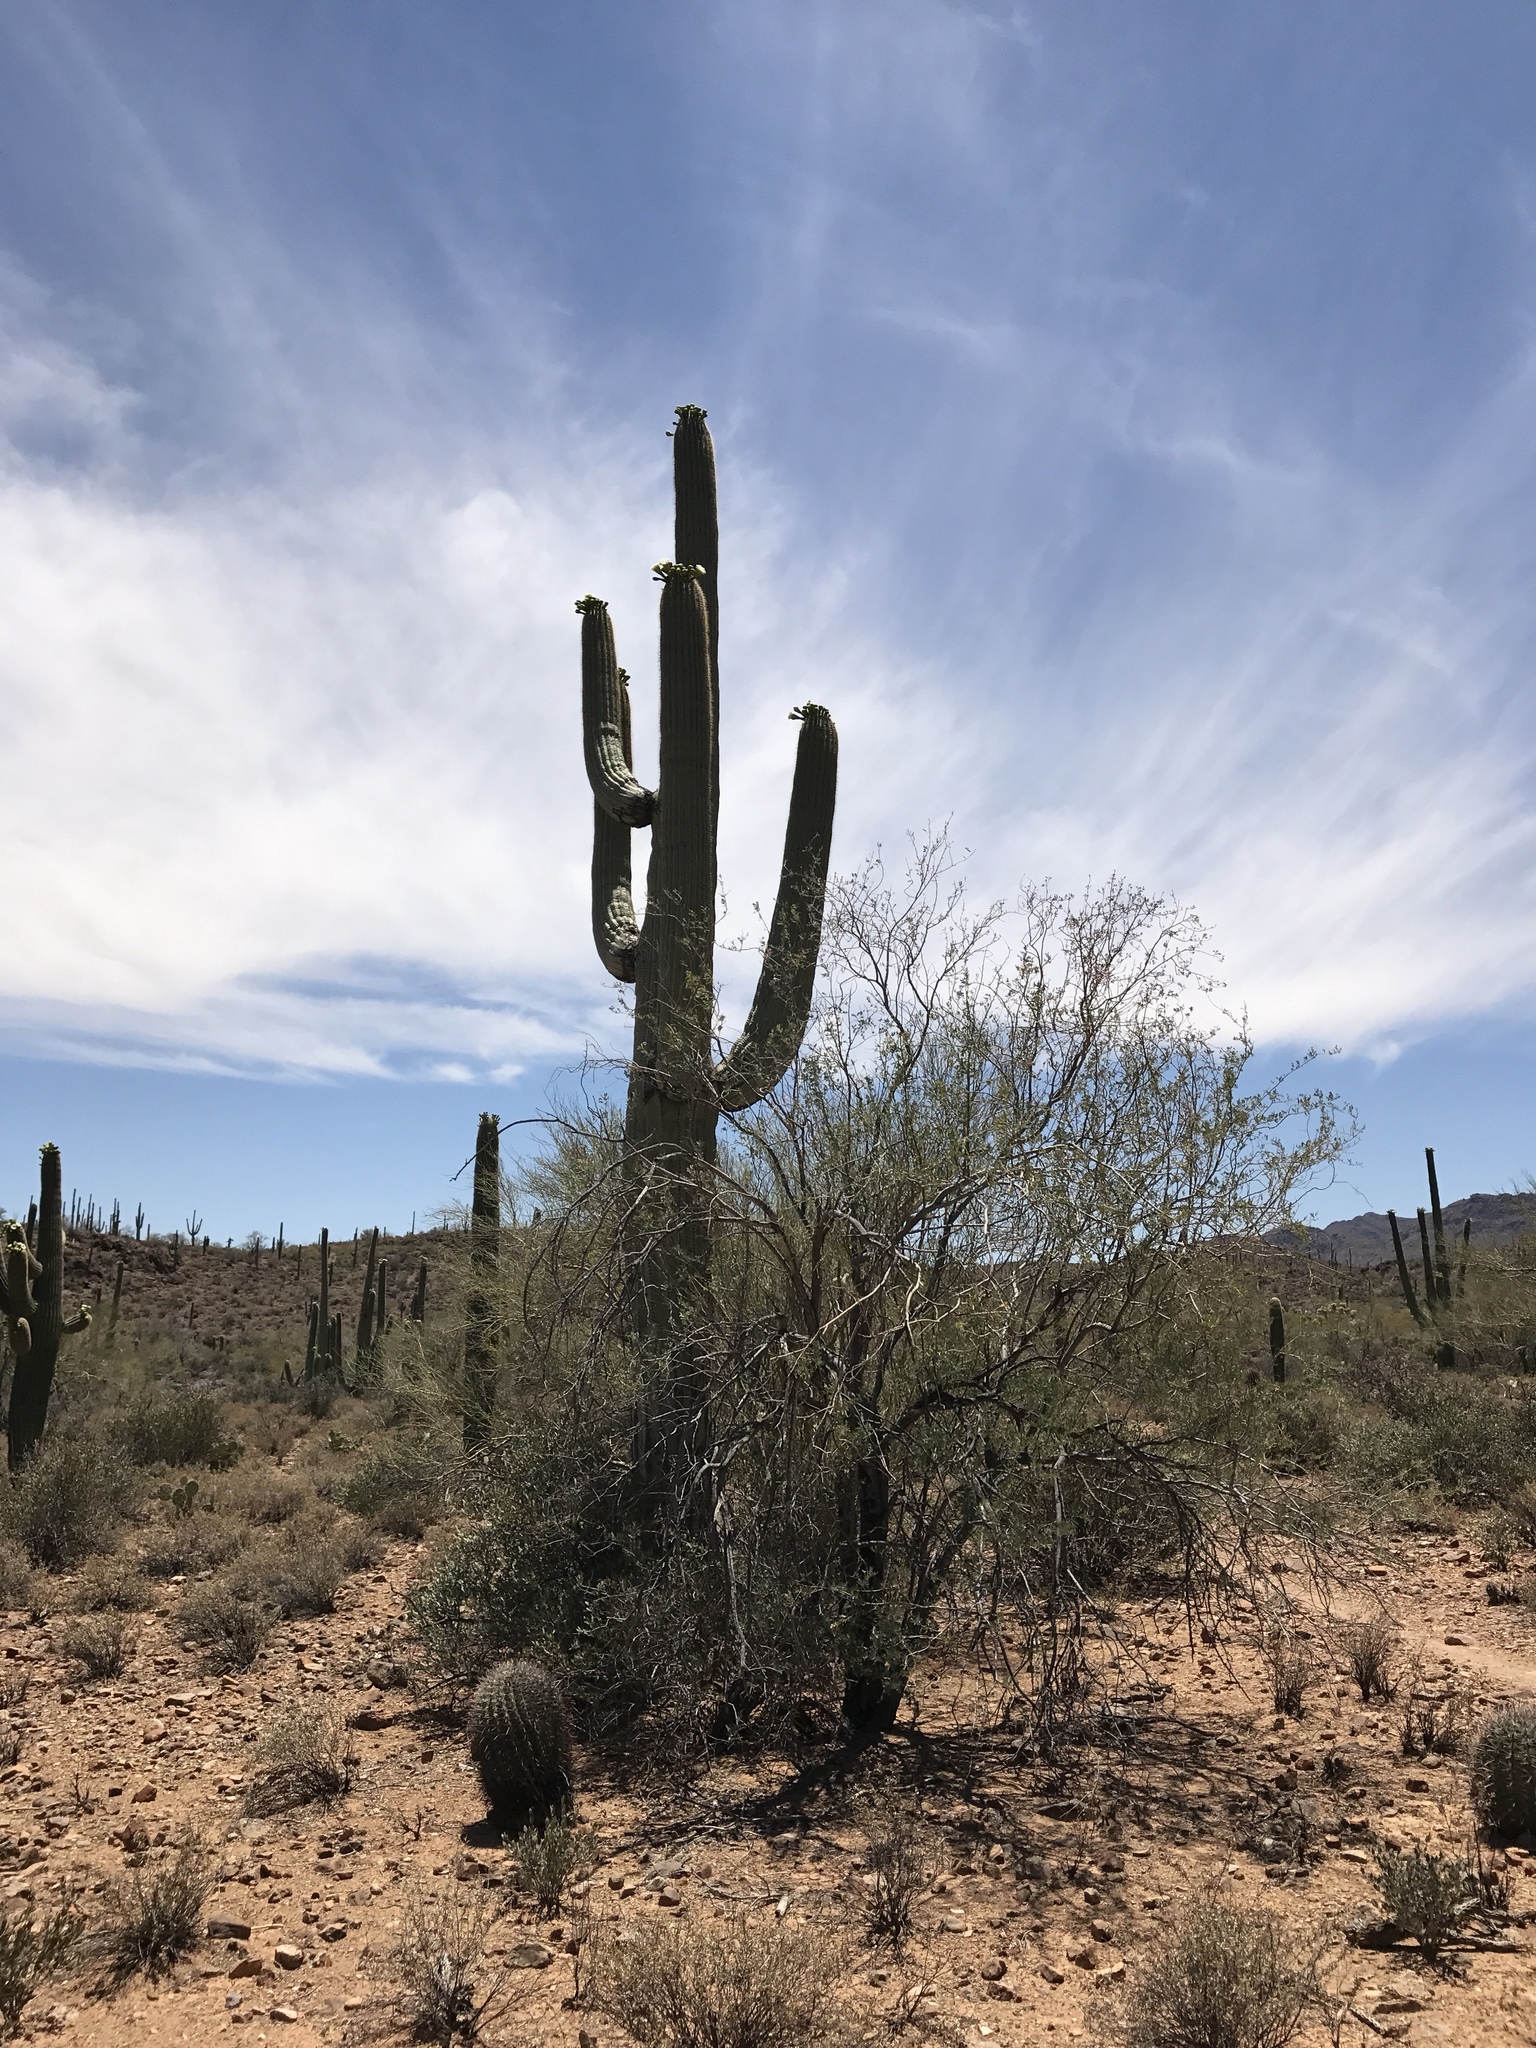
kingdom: Plantae
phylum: Tracheophyta
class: Magnoliopsida
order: Caryophyllales
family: Cactaceae
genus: Carnegiea
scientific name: Carnegiea gigantea
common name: Saguaro
